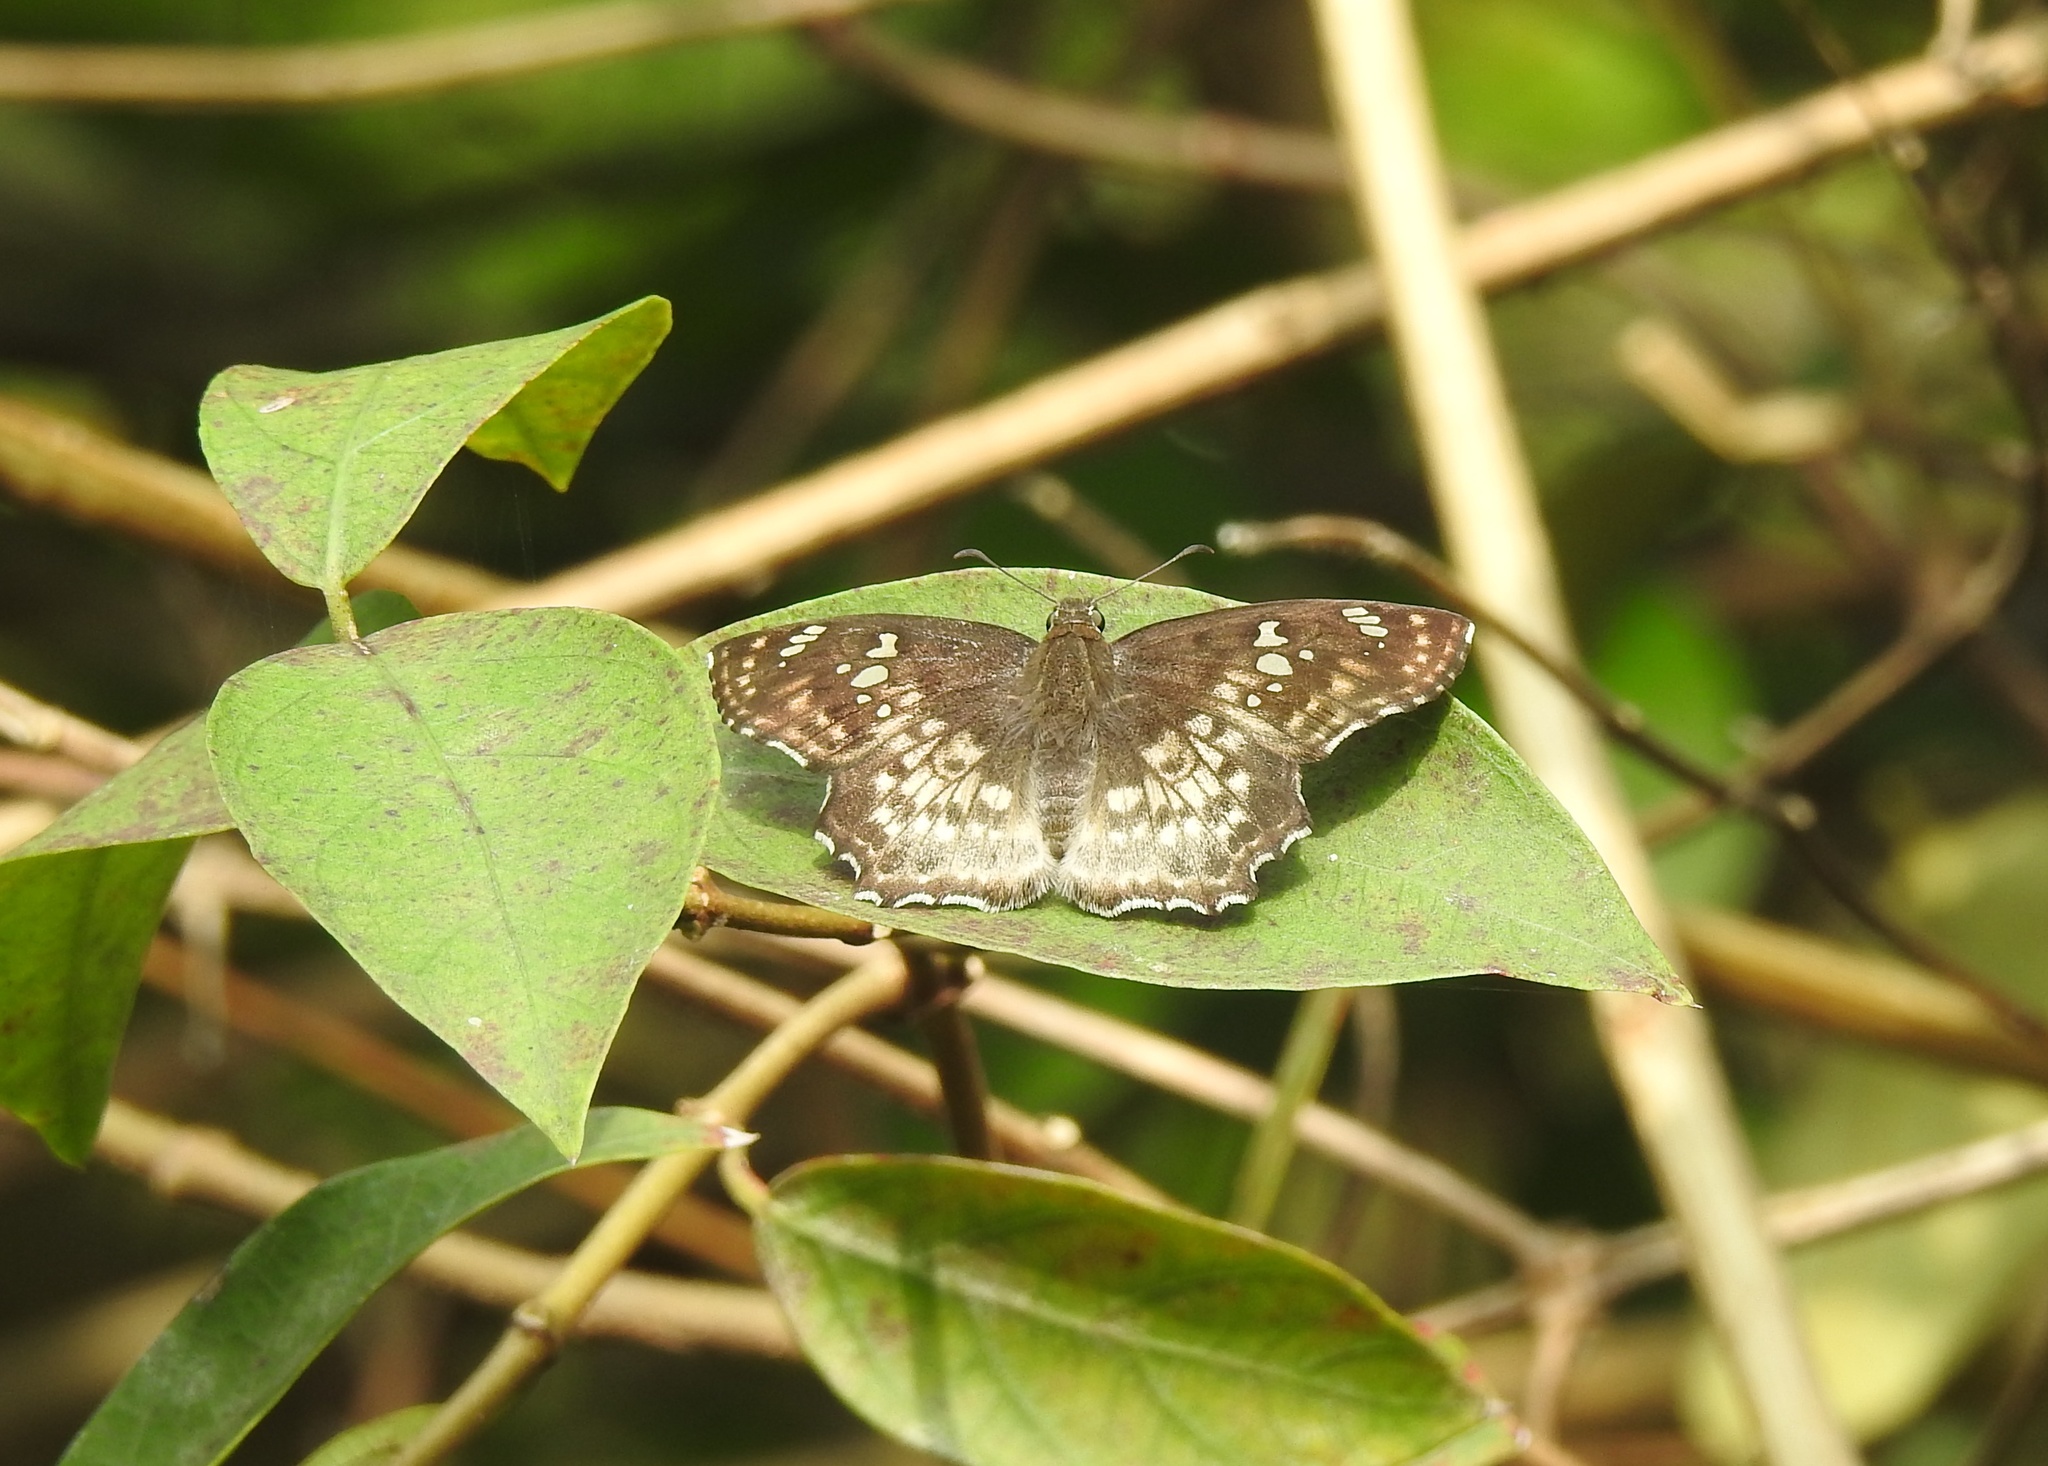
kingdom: Animalia
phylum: Arthropoda
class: Insecta
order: Lepidoptera
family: Hesperiidae
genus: Caprona
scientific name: Caprona ransonnettii
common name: Golden angle
